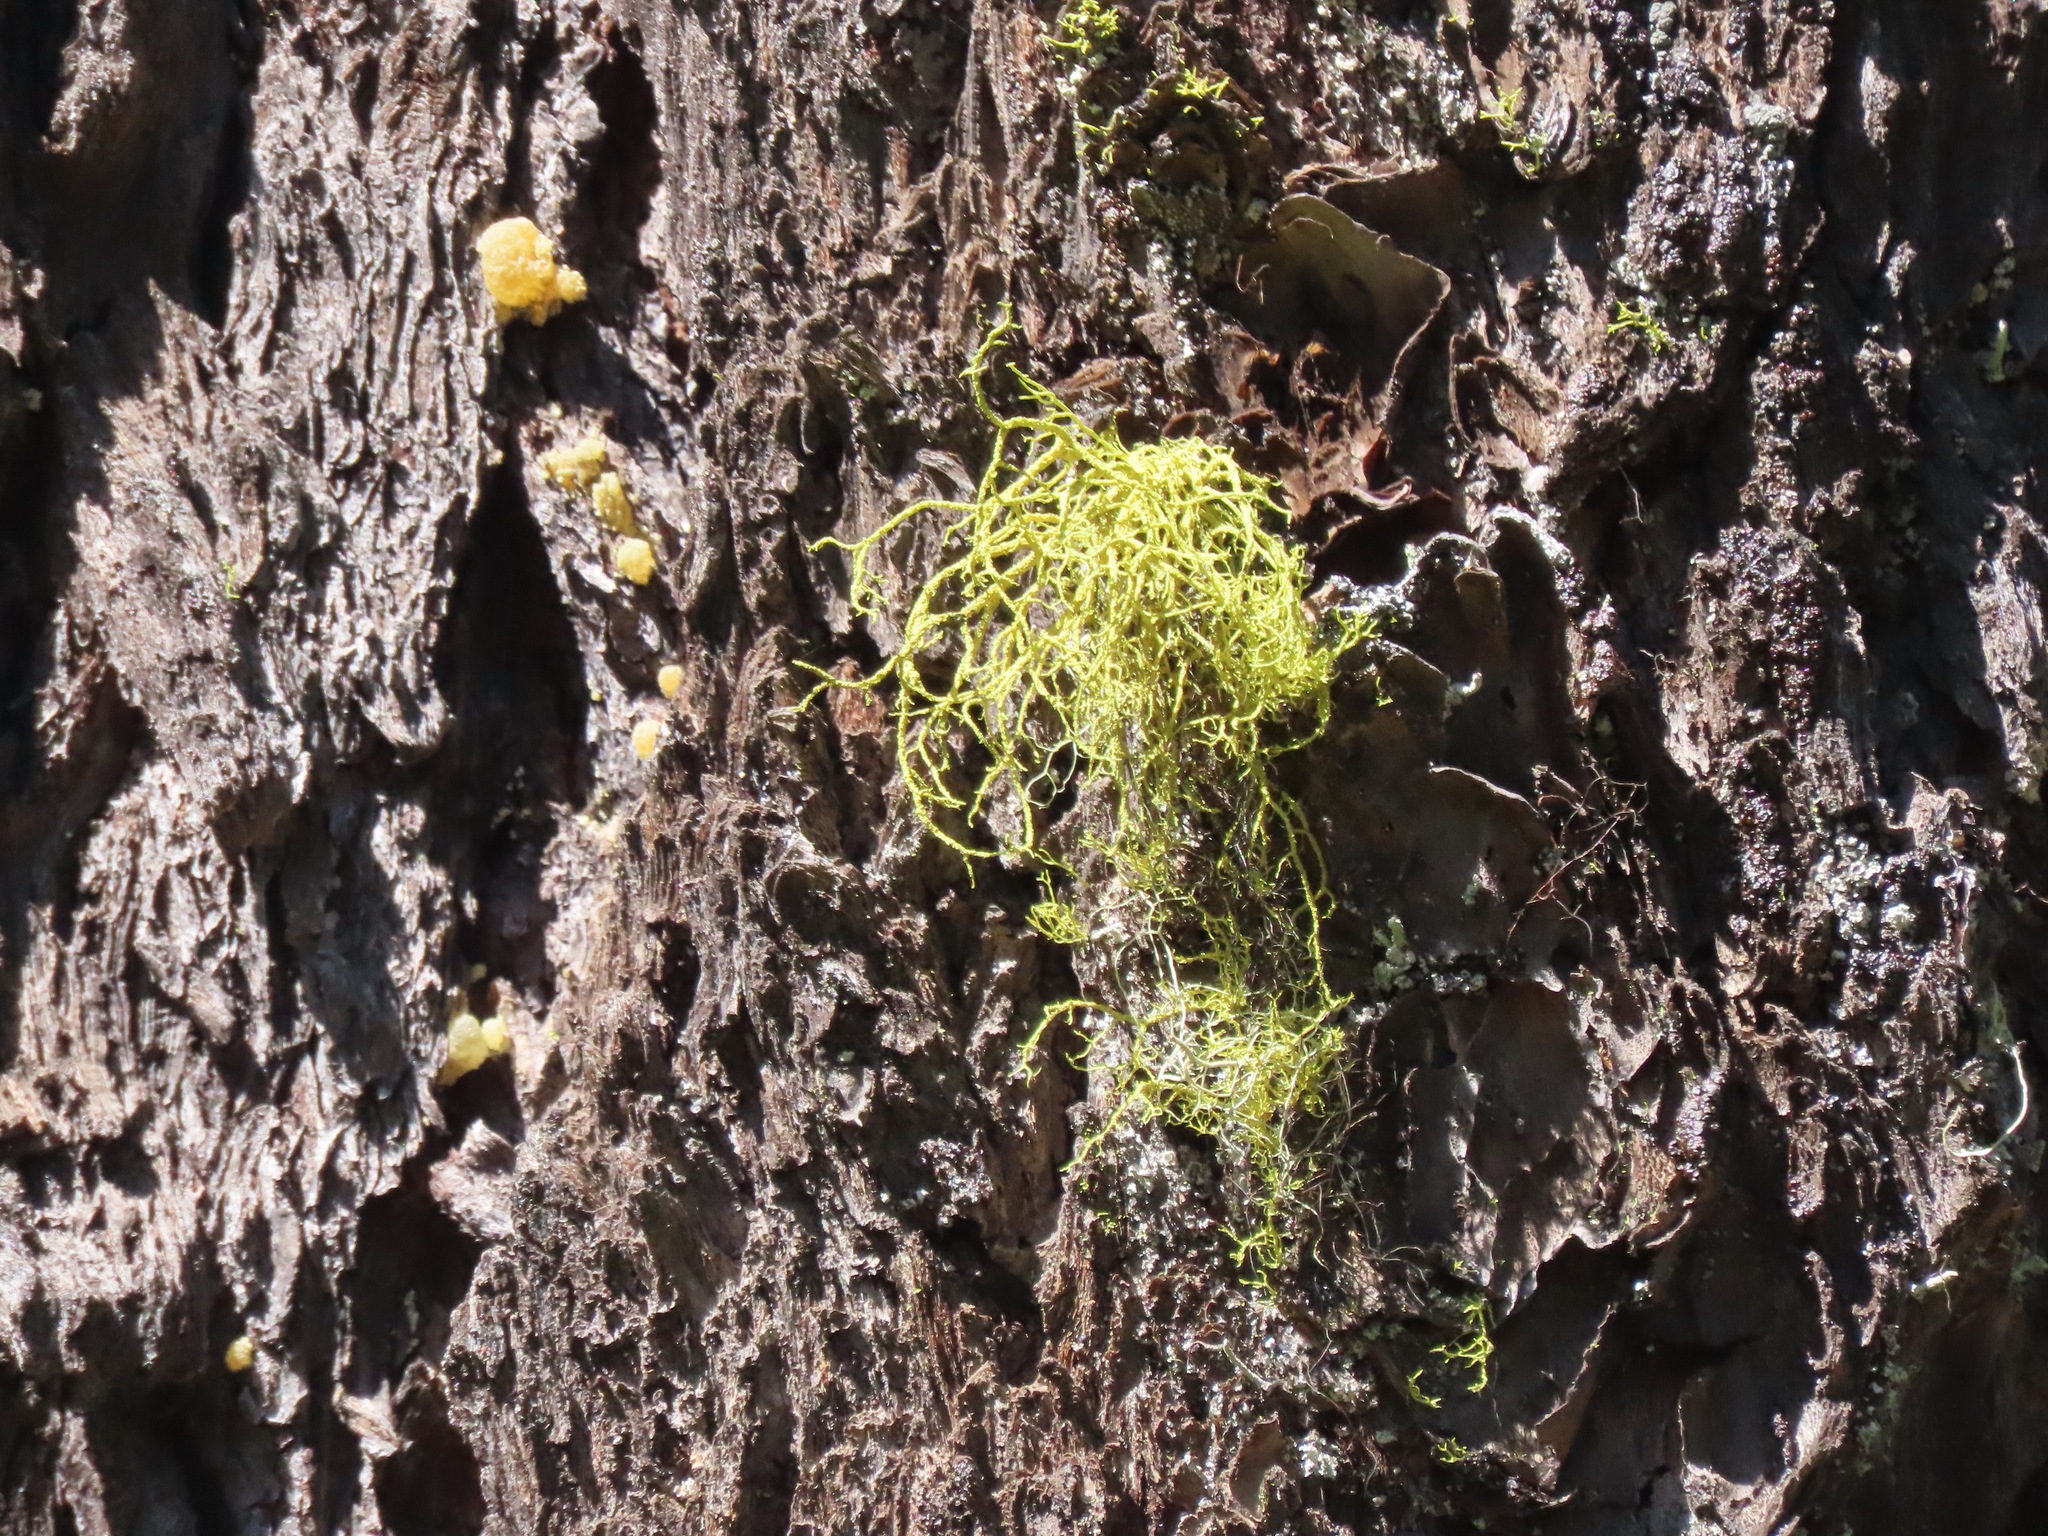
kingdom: Fungi
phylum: Ascomycota
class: Lecanoromycetes
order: Lecanorales
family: Parmeliaceae
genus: Letharia
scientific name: Letharia vulpina
